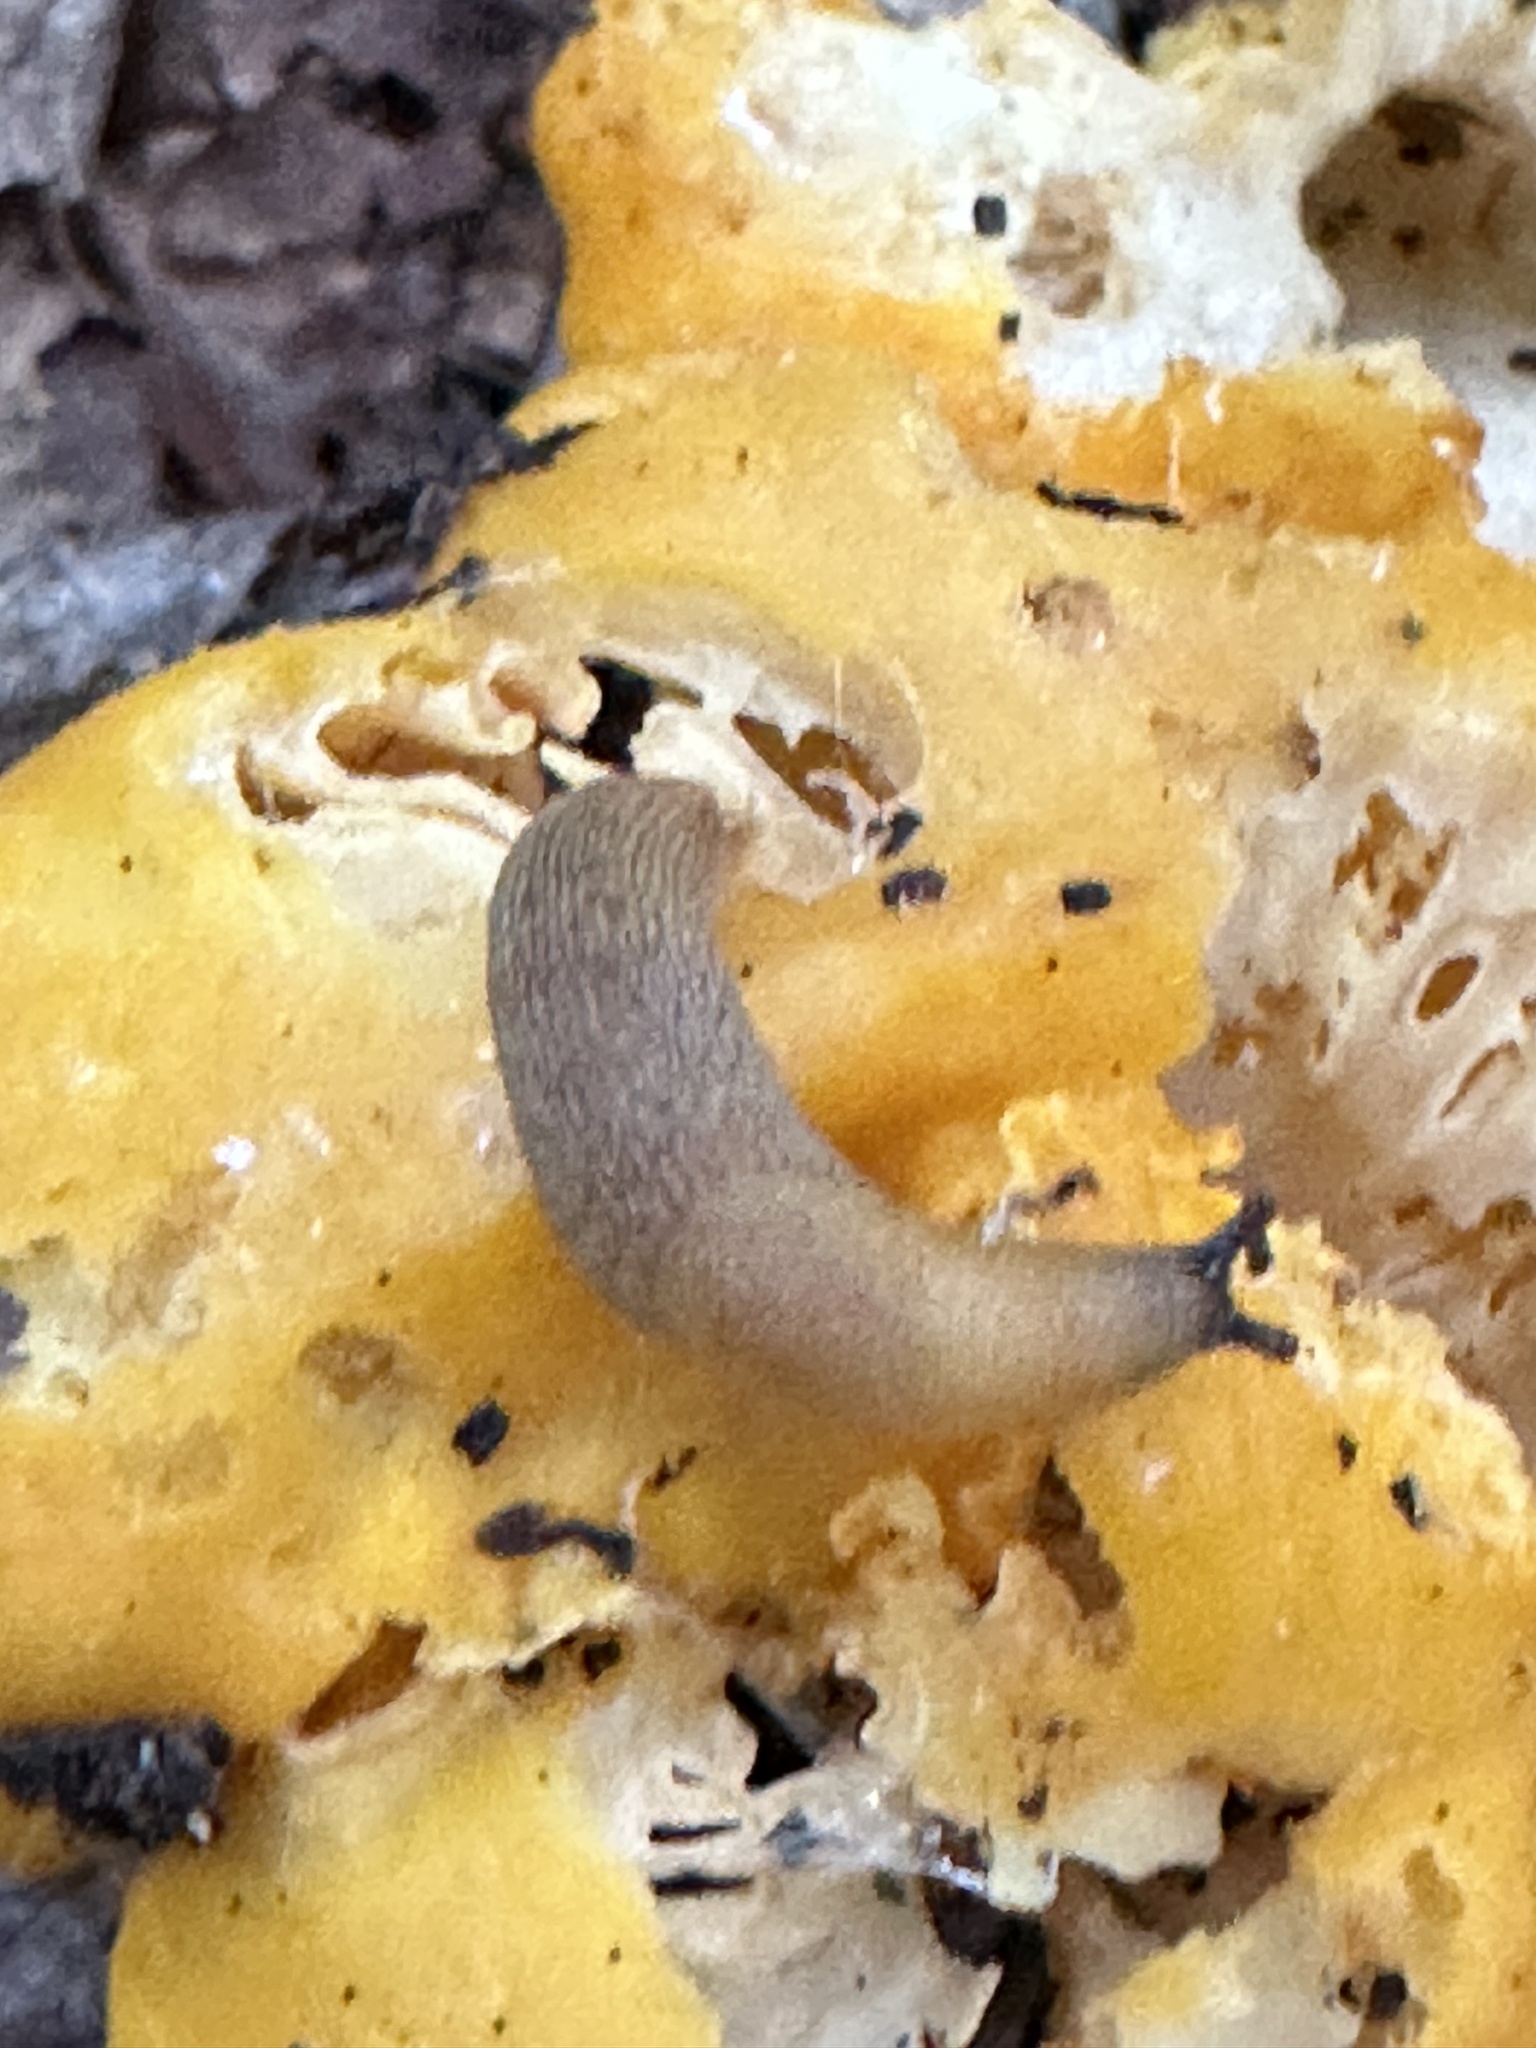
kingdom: Animalia
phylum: Mollusca
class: Gastropoda
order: Stylommatophora
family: Arionidae
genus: Arion
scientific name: Arion subfuscus
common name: Dusky arion
